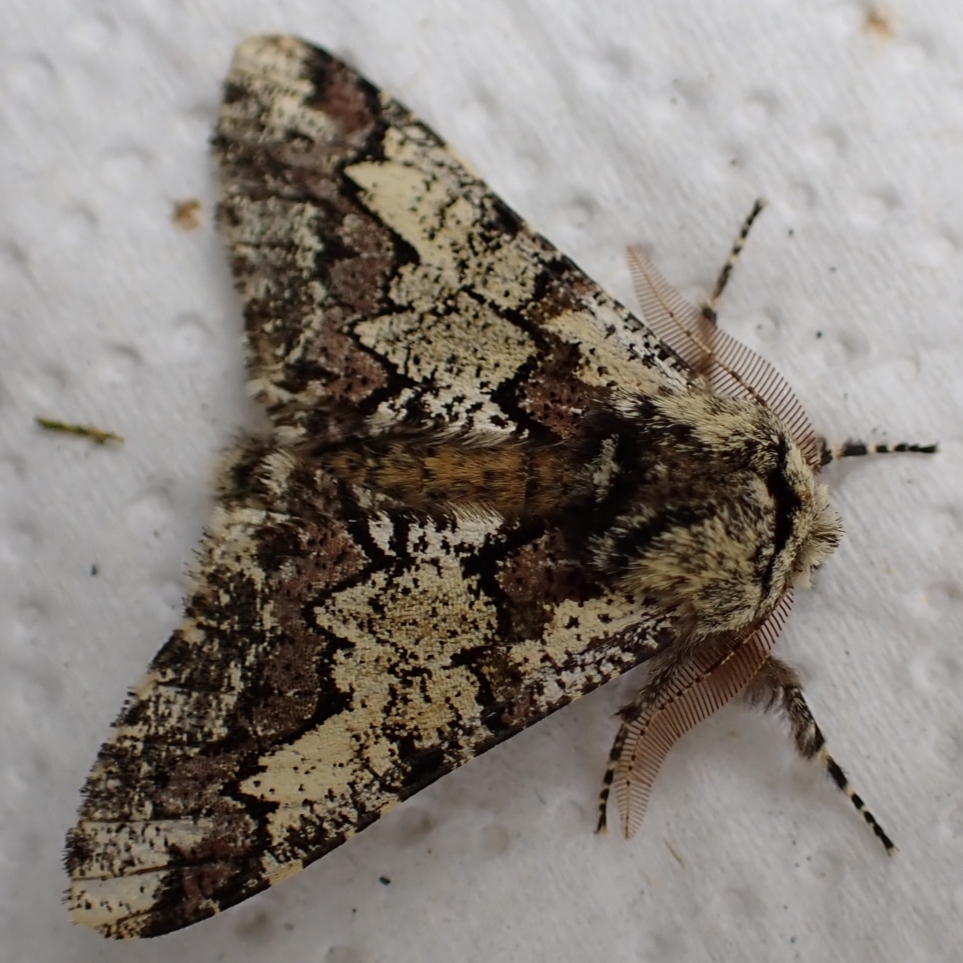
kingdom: Animalia
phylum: Arthropoda
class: Insecta
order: Lepidoptera
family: Geometridae
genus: Biston
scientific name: Biston strataria
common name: Oak beauty
